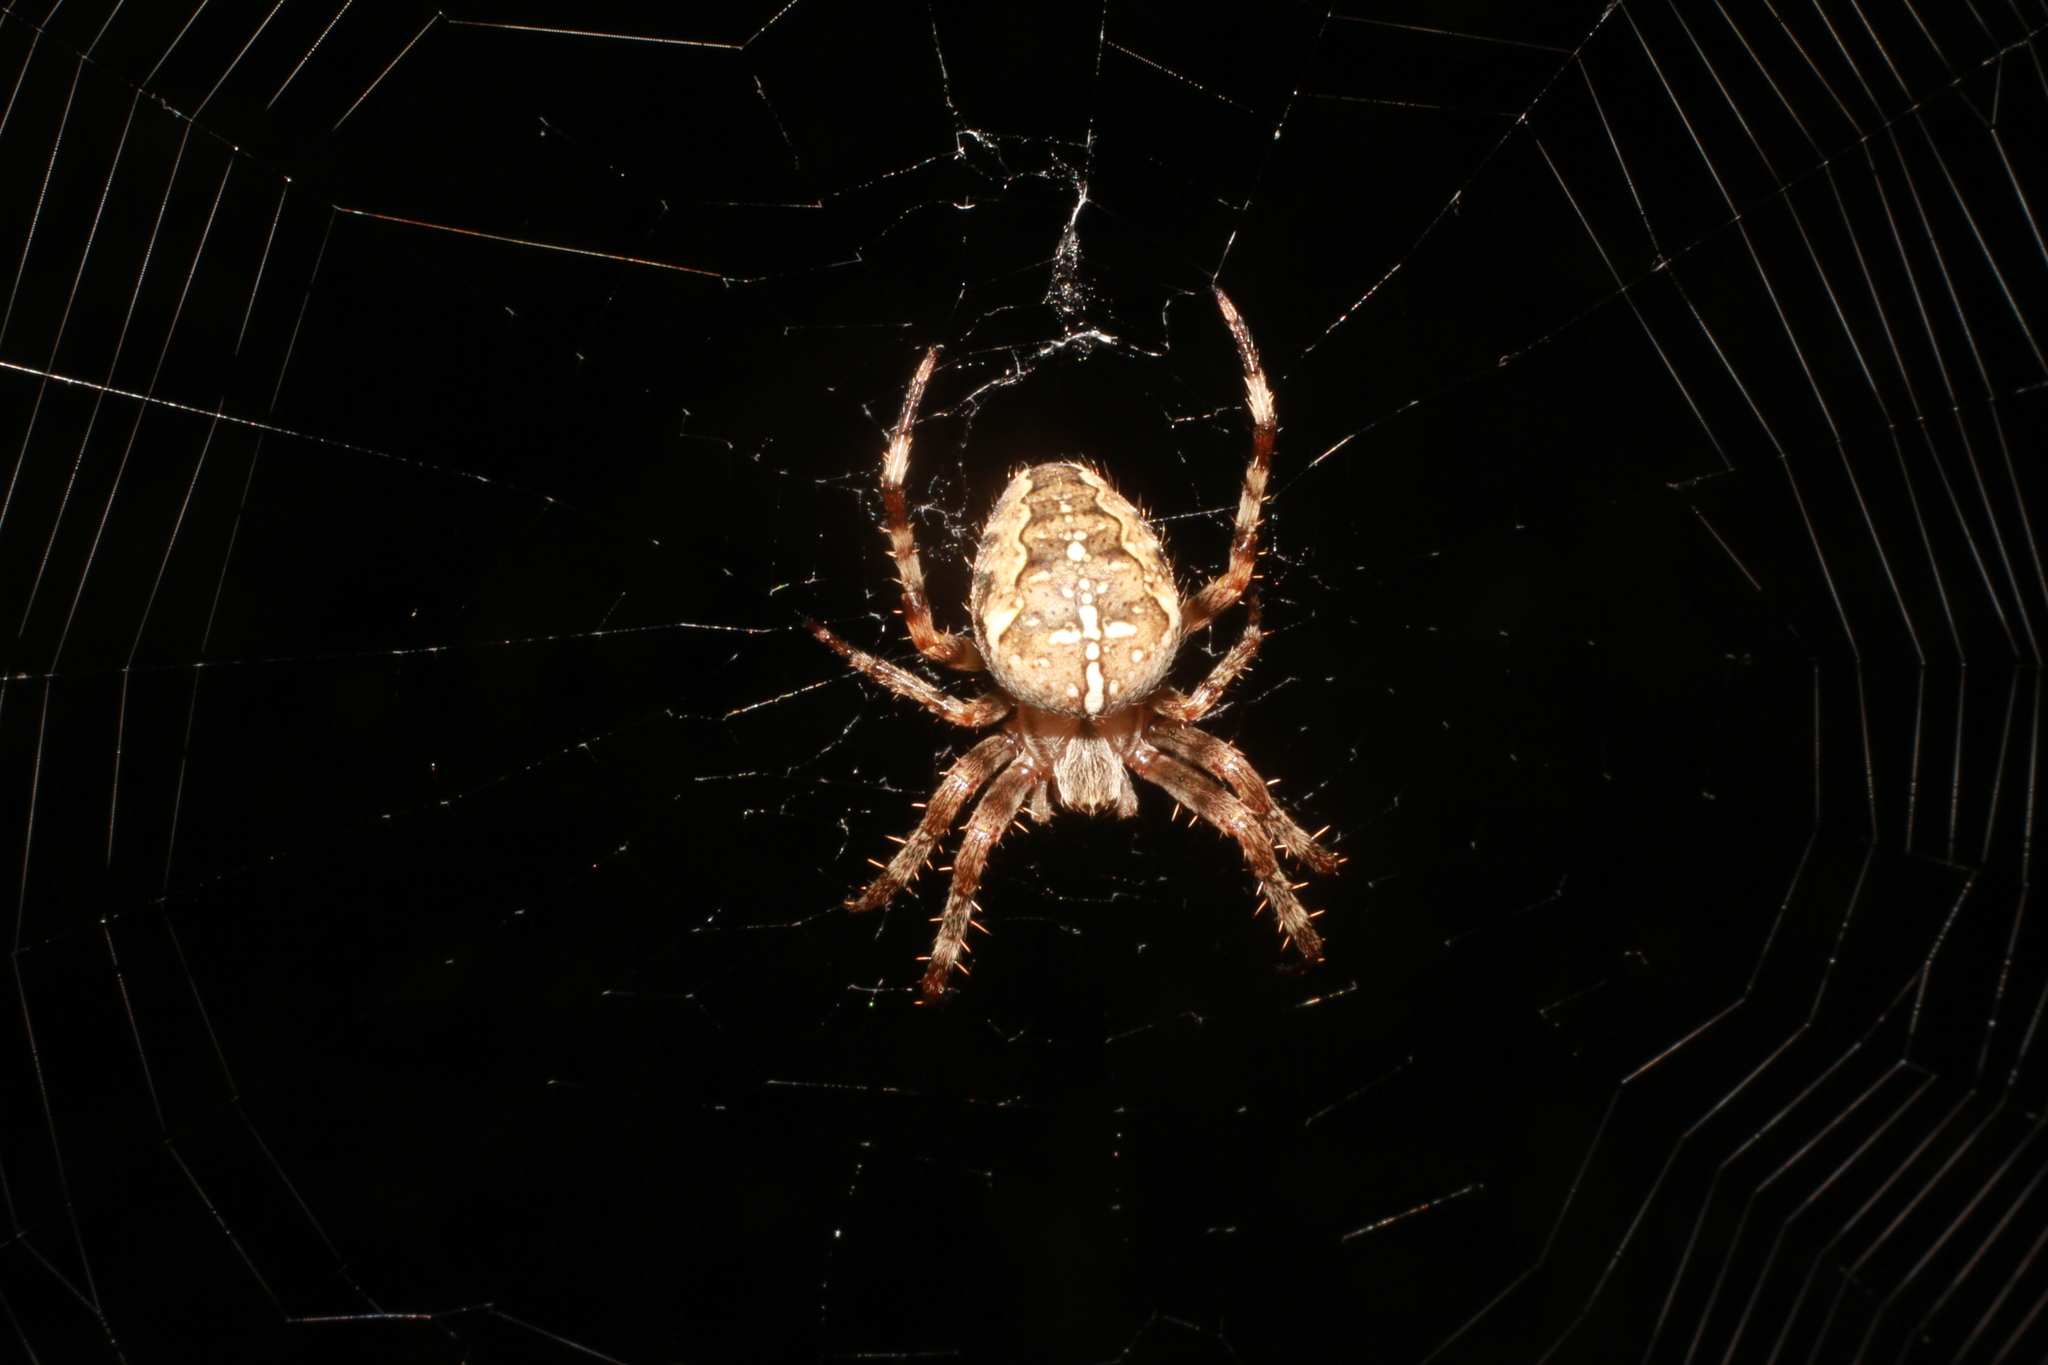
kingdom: Animalia
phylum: Arthropoda
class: Arachnida
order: Araneae
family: Araneidae
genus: Araneus
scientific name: Araneus diadematus
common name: Cross orbweaver
